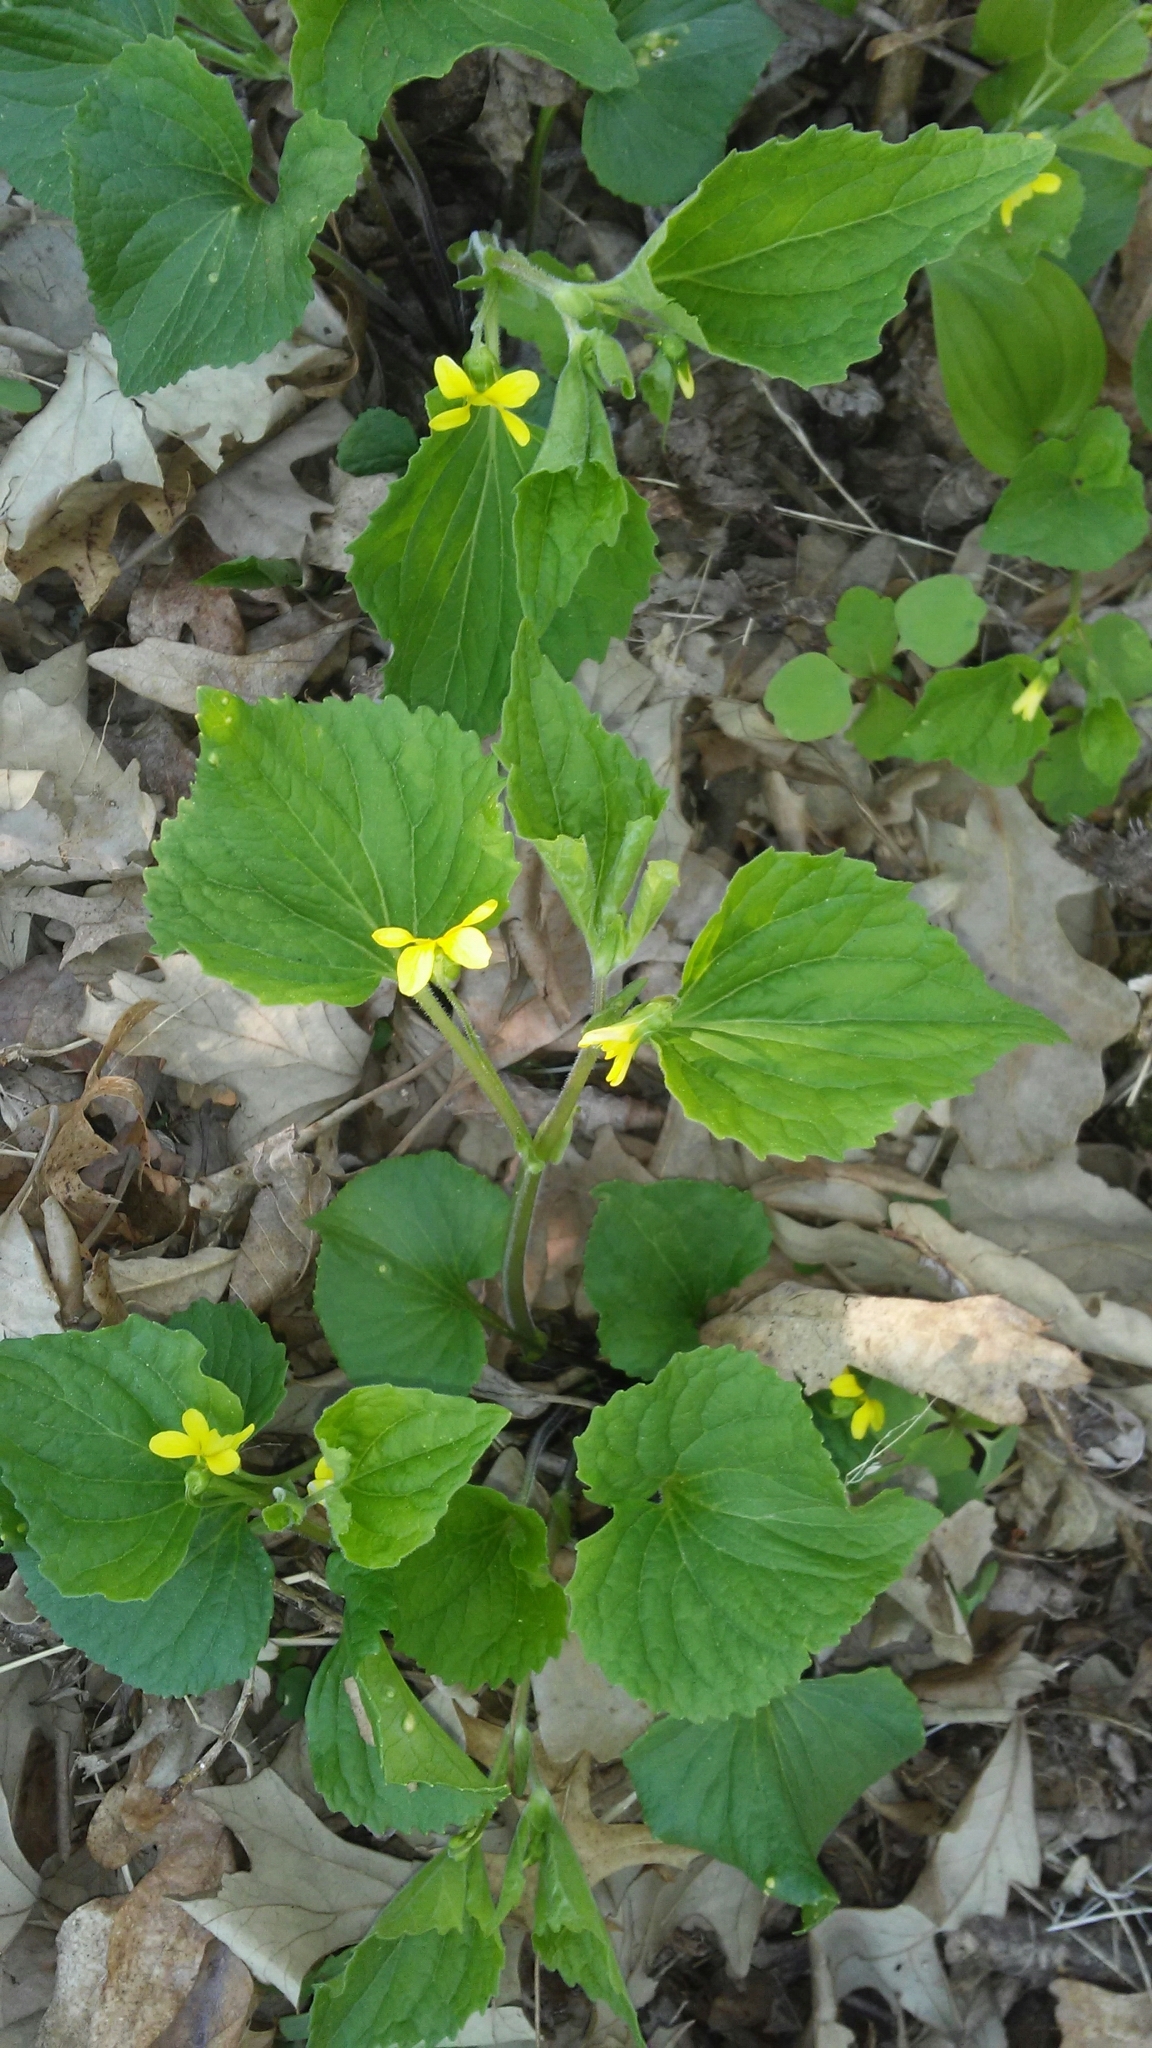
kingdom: Plantae
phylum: Tracheophyta
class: Magnoliopsida
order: Malpighiales
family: Violaceae
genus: Viola
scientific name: Viola eriocarpa
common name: Smooth yellow violet
